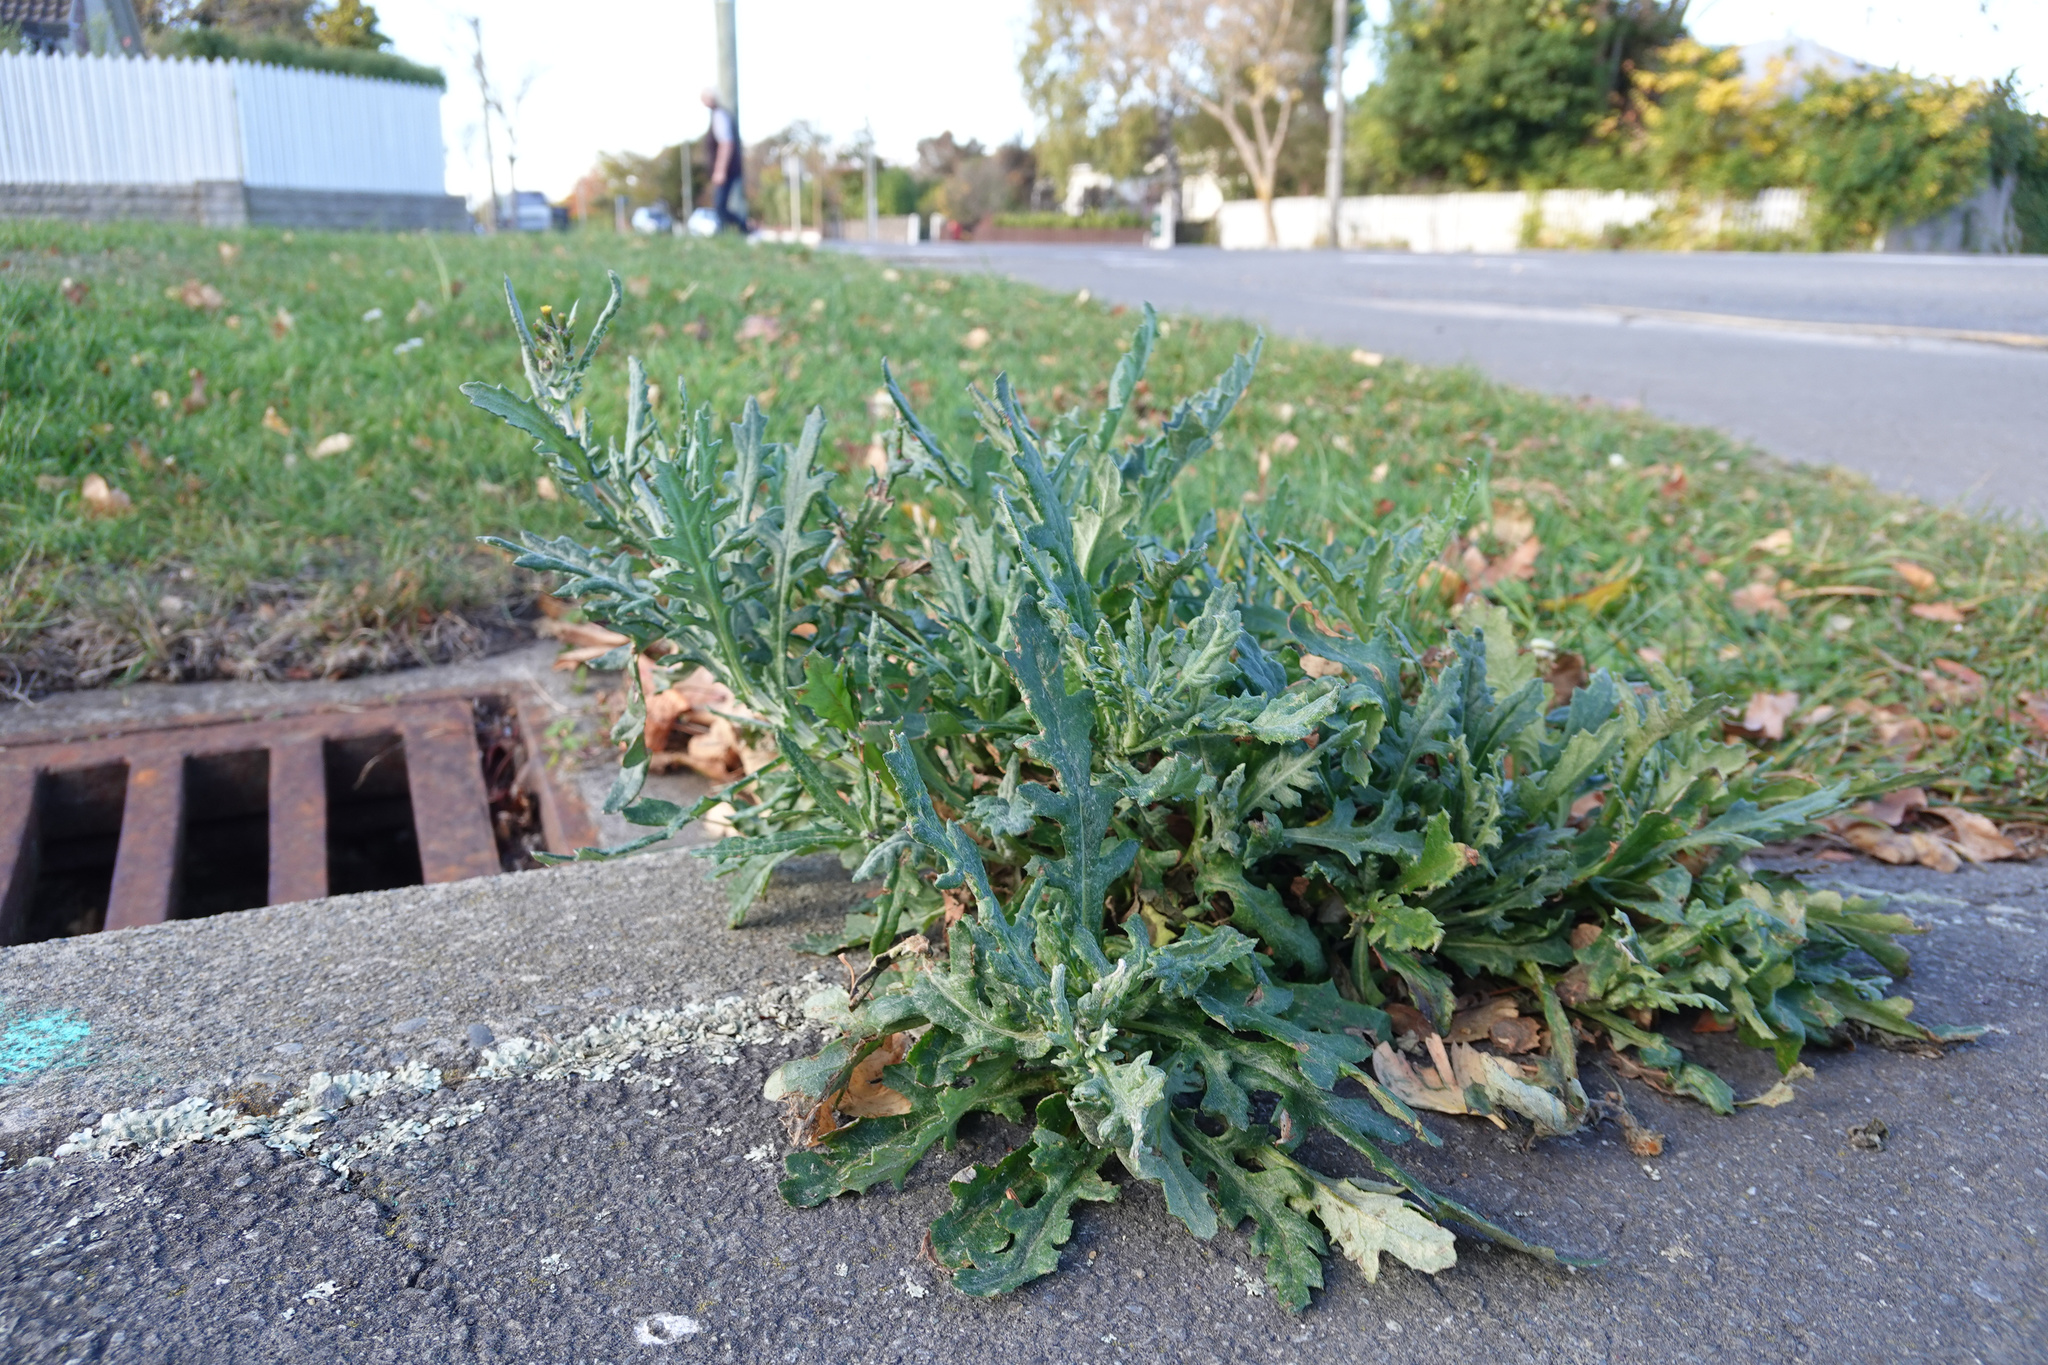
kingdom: Plantae
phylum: Tracheophyta
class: Magnoliopsida
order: Asterales
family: Asteraceae
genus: Senecio
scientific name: Senecio glomeratus
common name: Cutleaf burnweed
